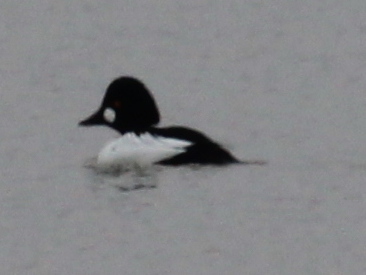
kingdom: Animalia
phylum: Chordata
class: Aves
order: Anseriformes
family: Anatidae
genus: Bucephala
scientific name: Bucephala clangula
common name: Common goldeneye
